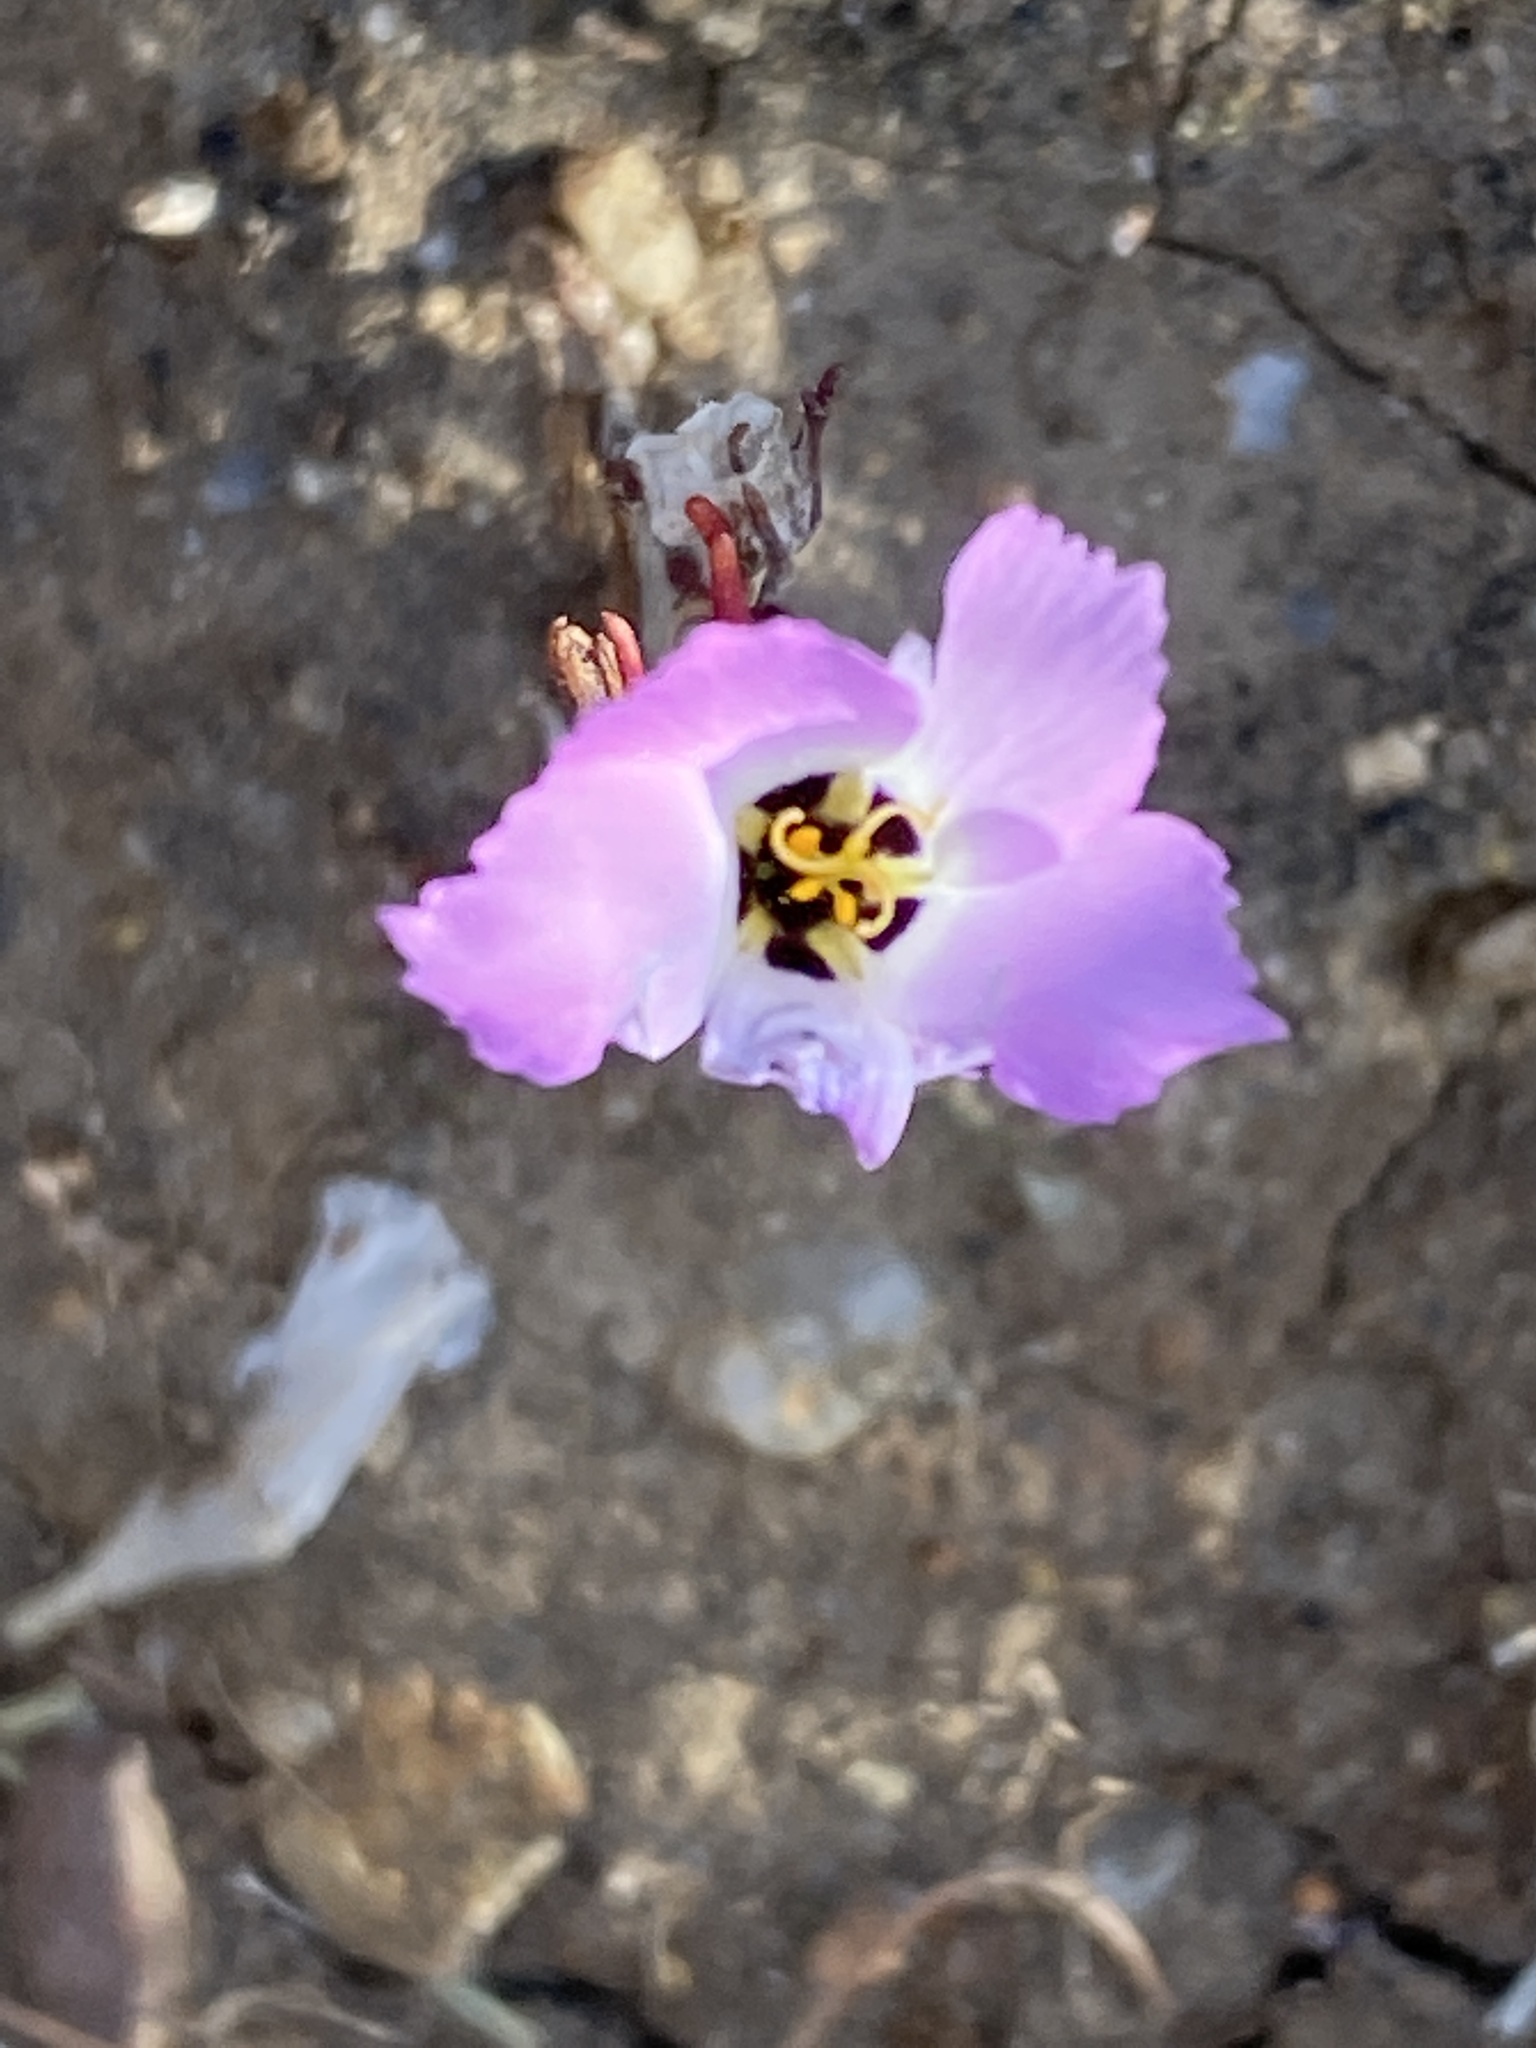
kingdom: Plantae
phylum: Tracheophyta
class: Magnoliopsida
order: Ericales
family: Polemoniaceae
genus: Linanthus
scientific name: Linanthus dianthiflorus
